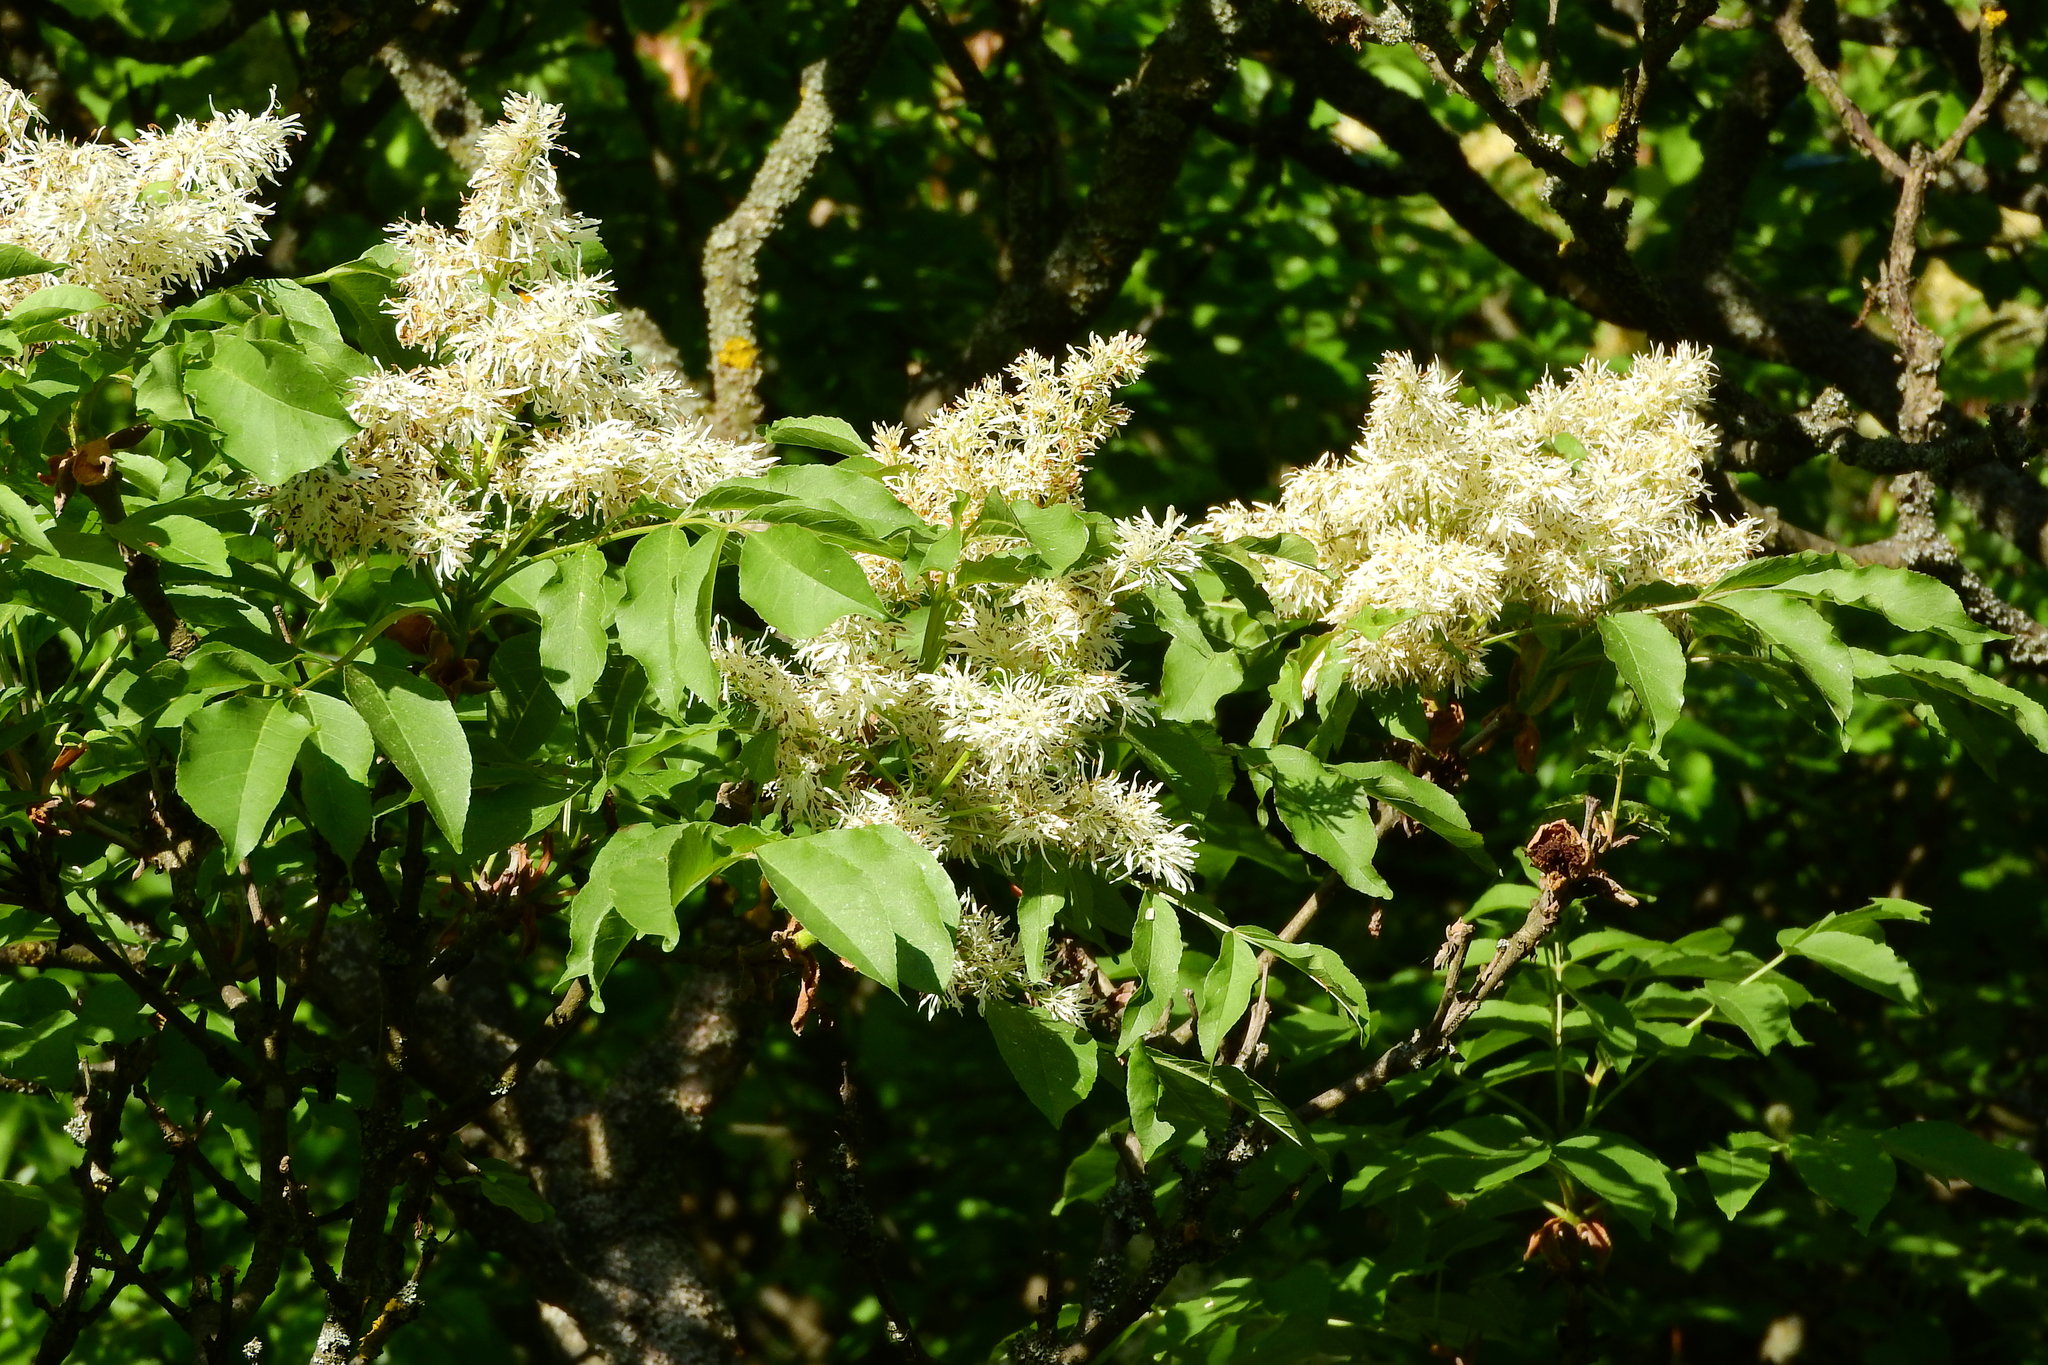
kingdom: Plantae
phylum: Tracheophyta
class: Magnoliopsida
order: Lamiales
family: Oleaceae
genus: Fraxinus
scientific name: Fraxinus ornus
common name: Manna ash
